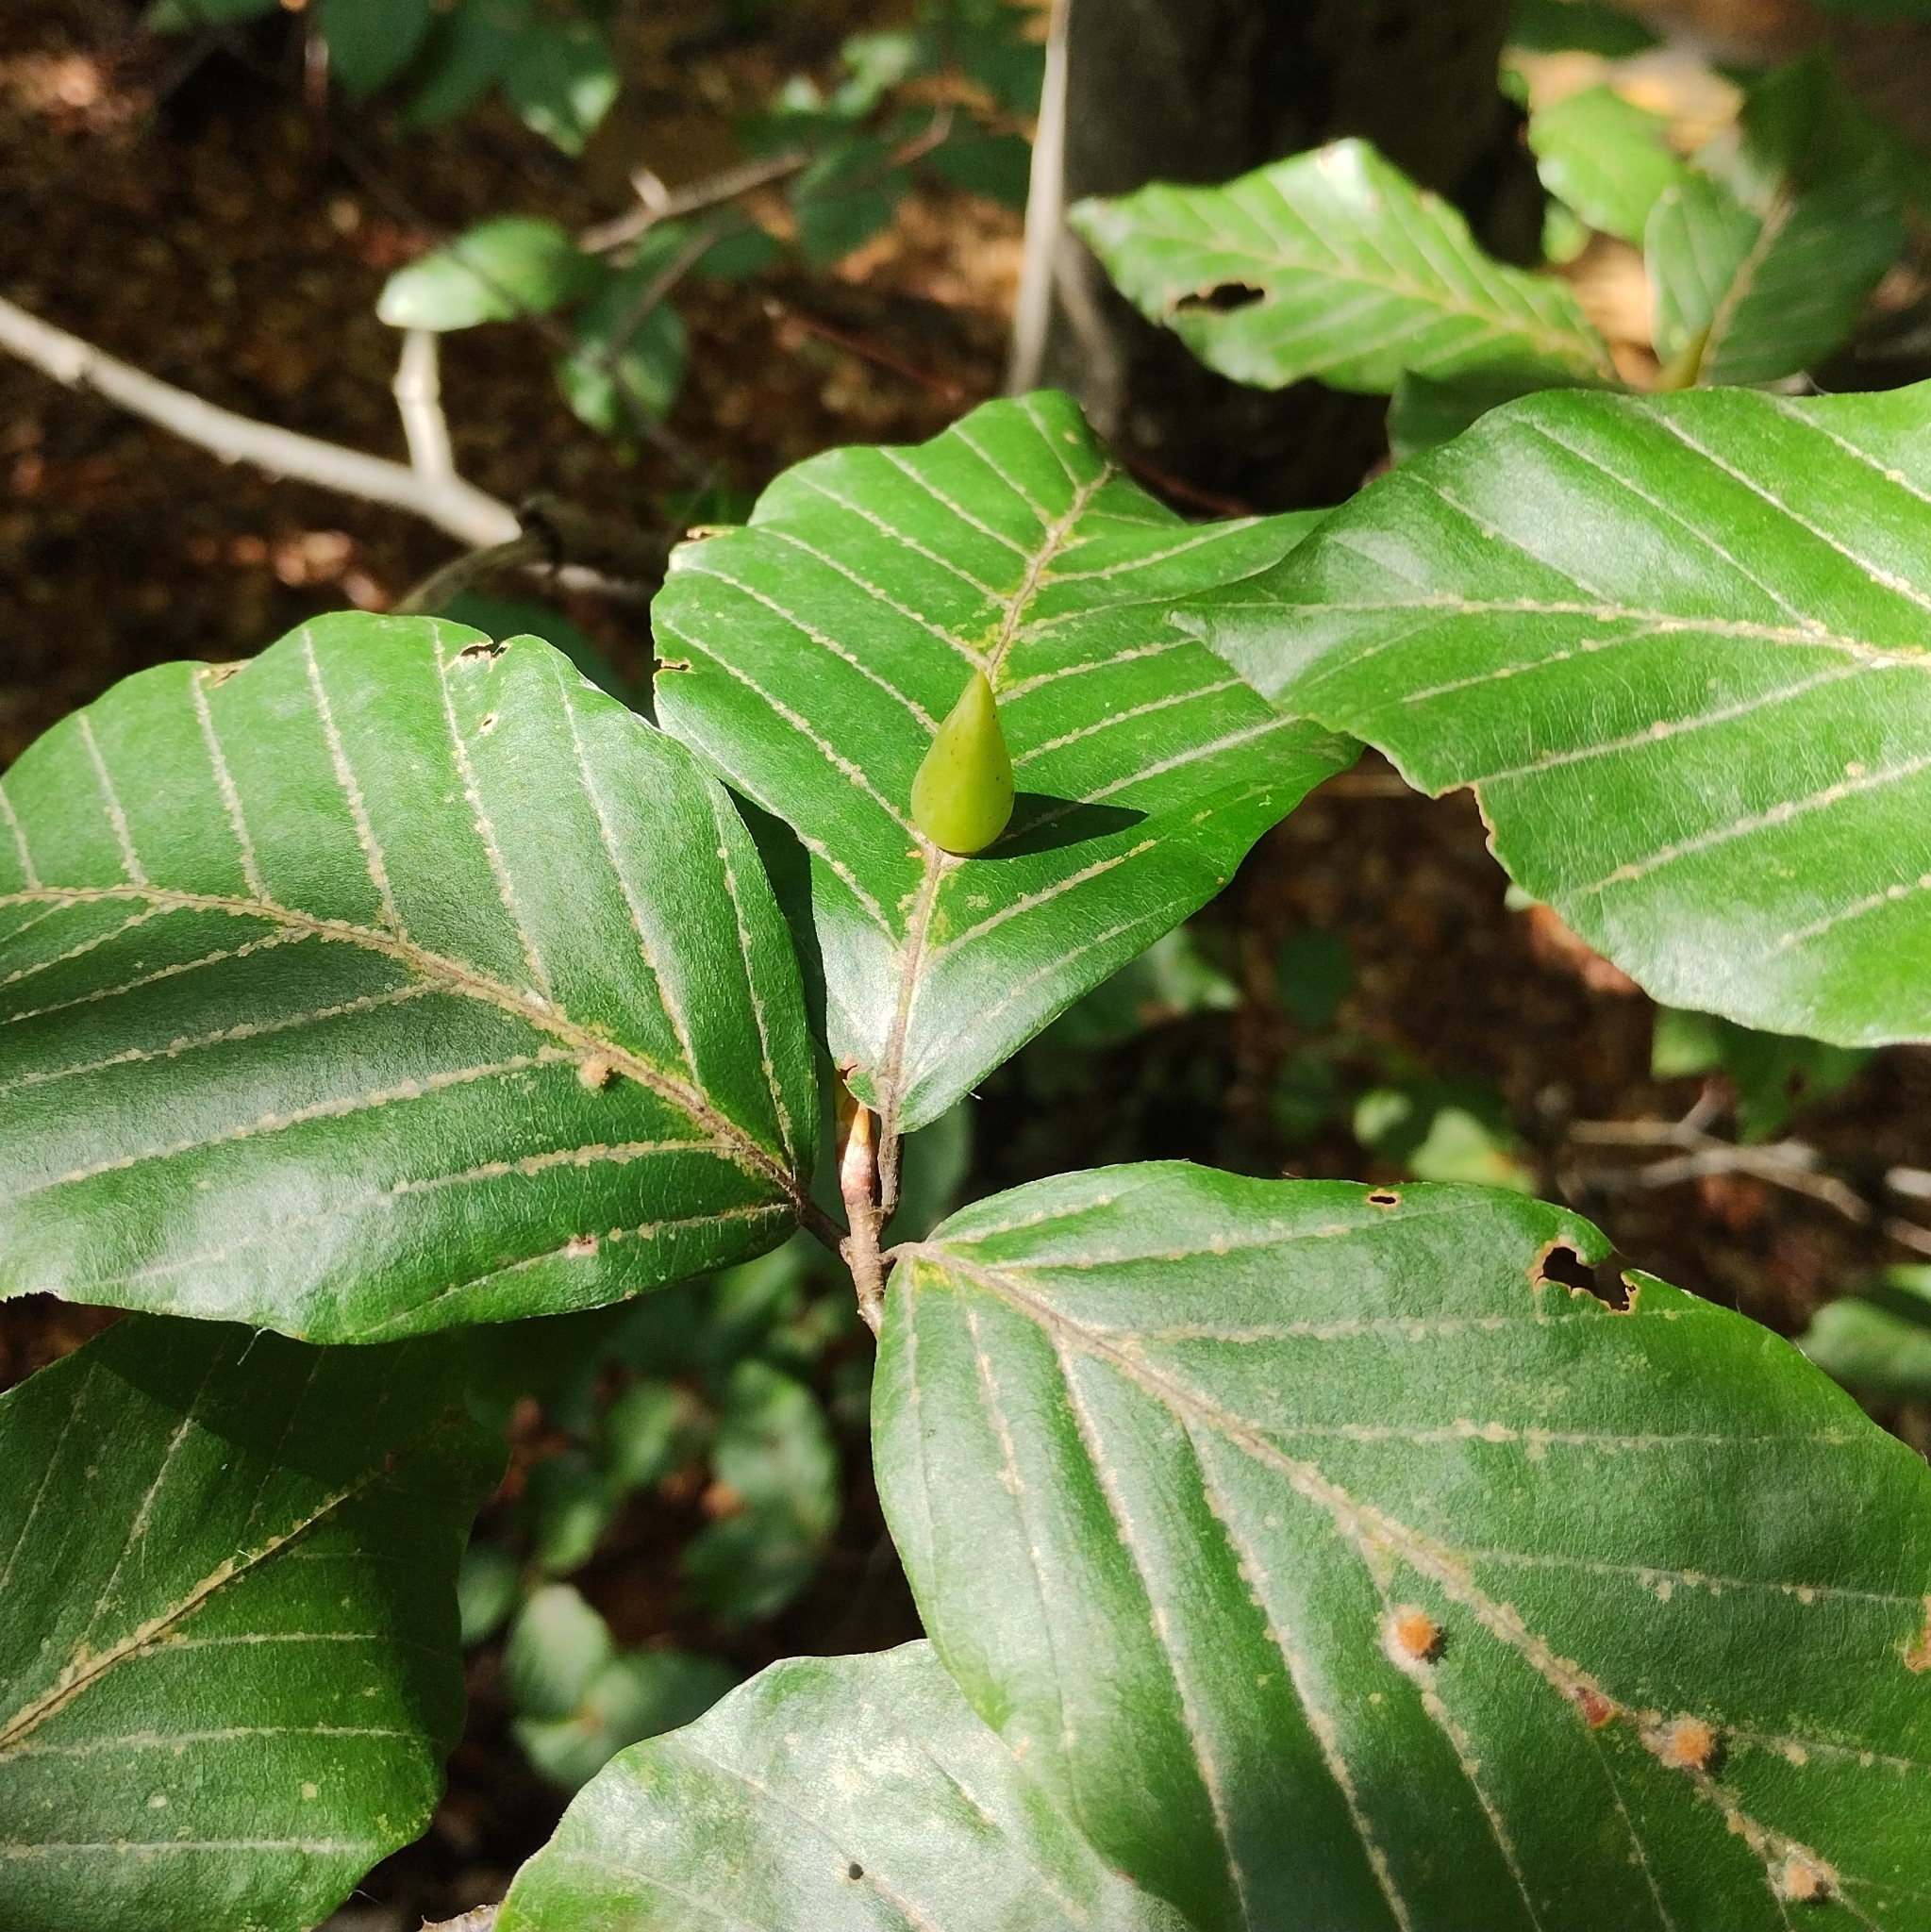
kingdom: Animalia
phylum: Arthropoda
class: Insecta
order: Diptera
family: Cecidomyiidae
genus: Mikiola
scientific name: Mikiola fagi
